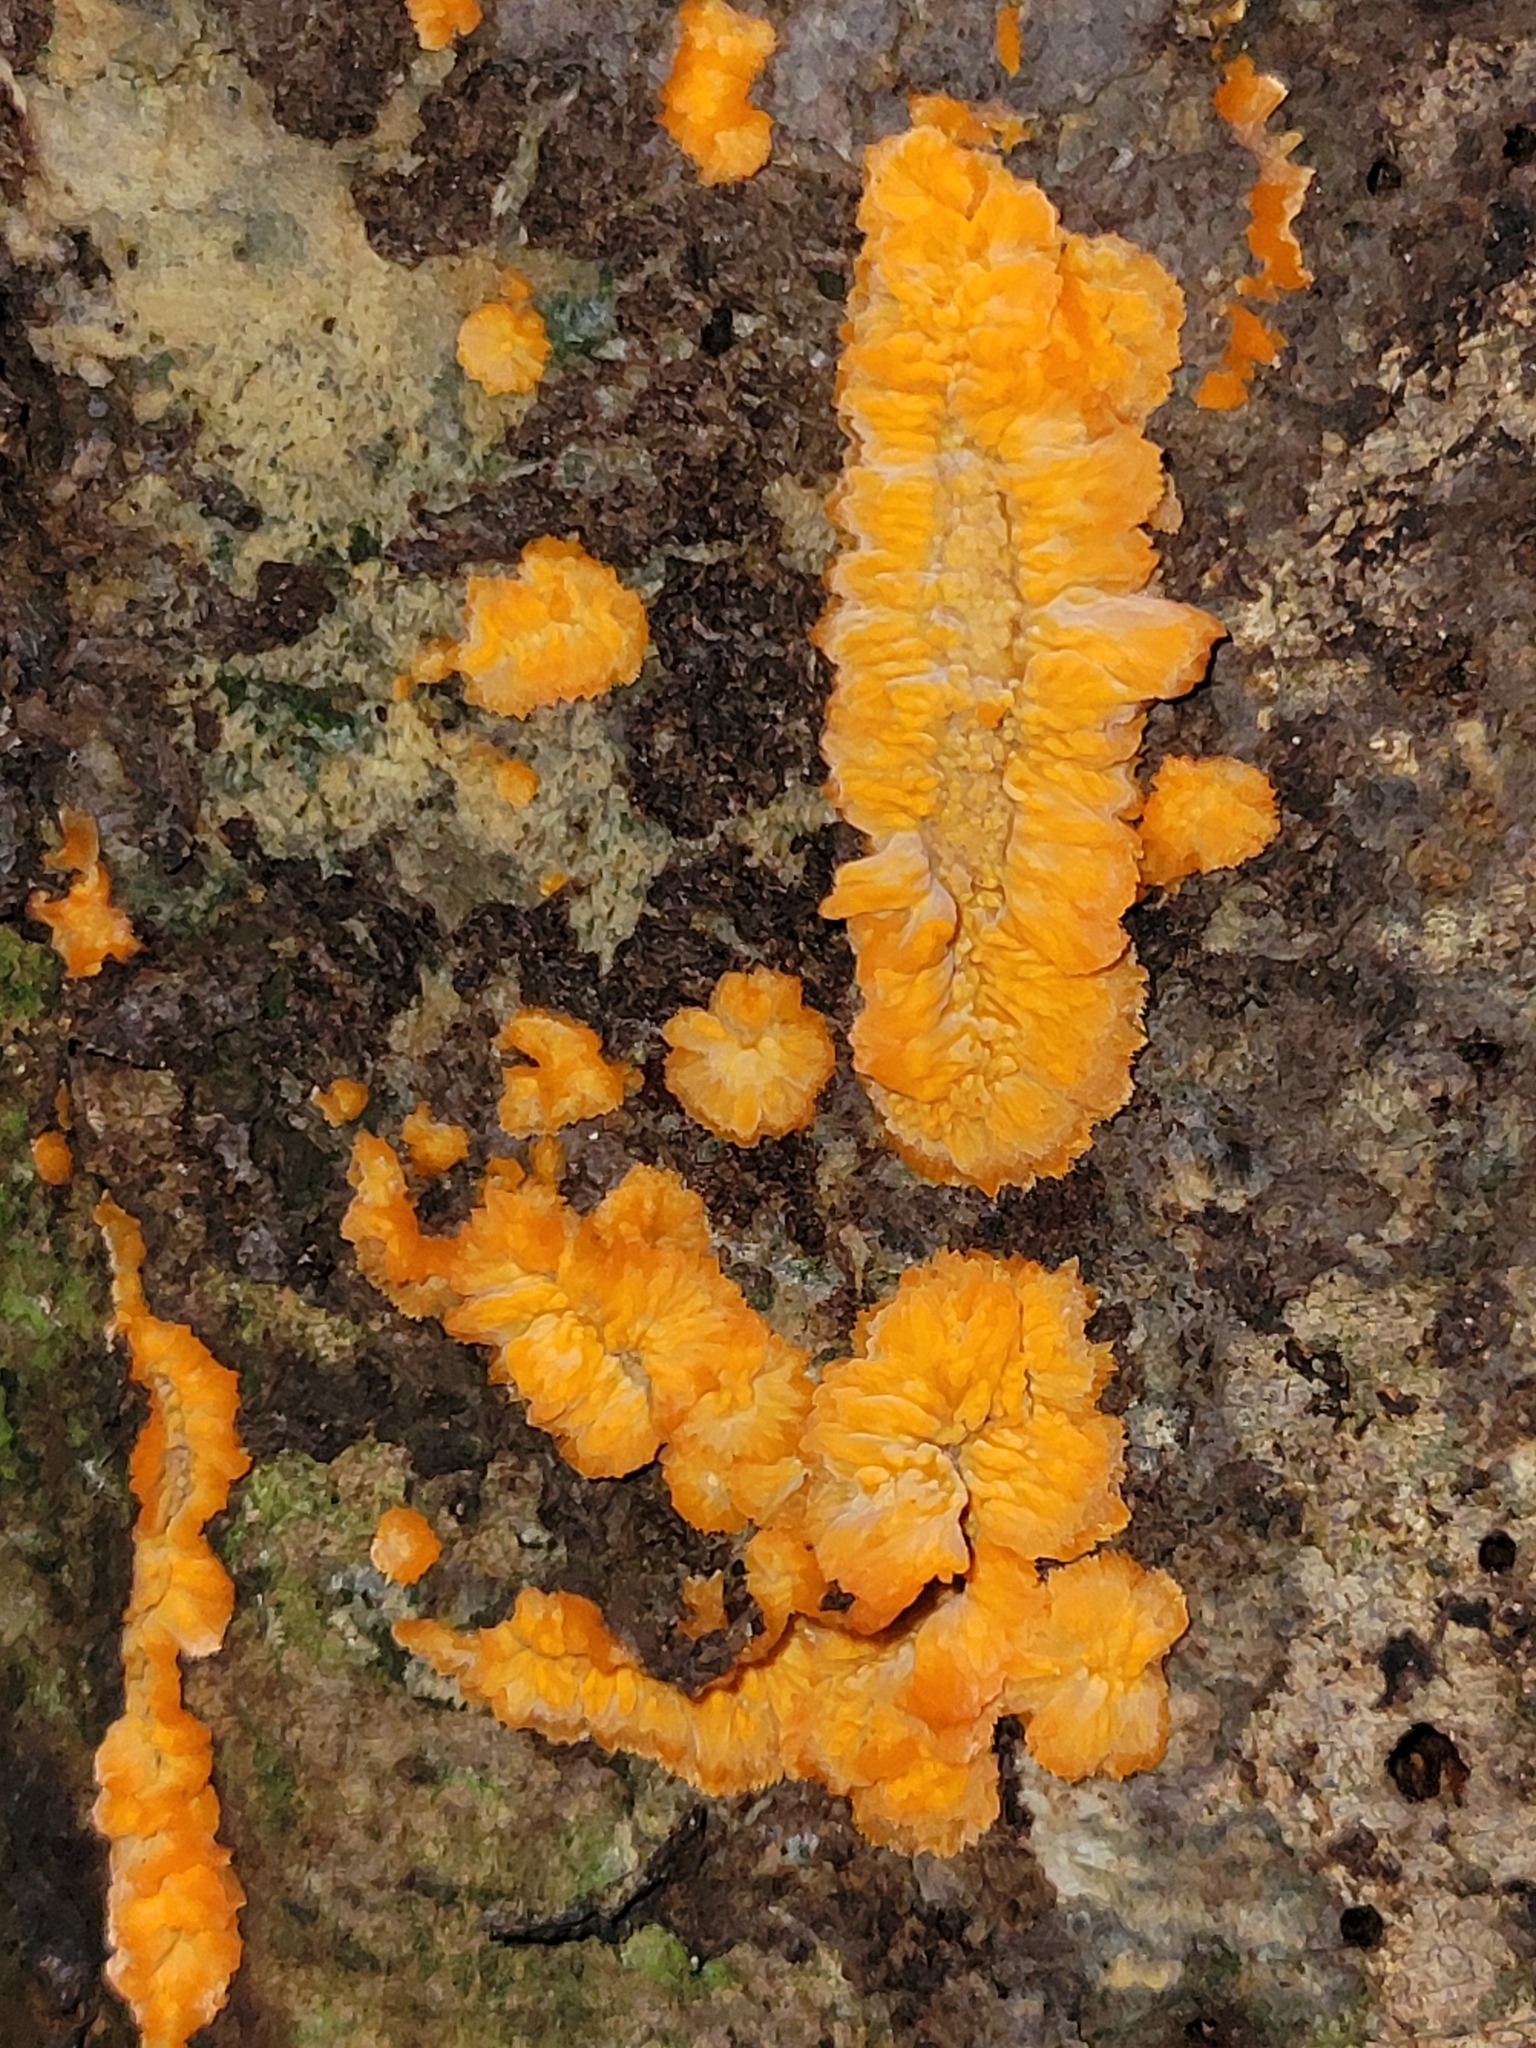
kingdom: Fungi
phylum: Basidiomycota
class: Agaricomycetes
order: Polyporales
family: Meruliaceae
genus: Phlebia
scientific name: Phlebia radiata
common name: Wrinkled crust
